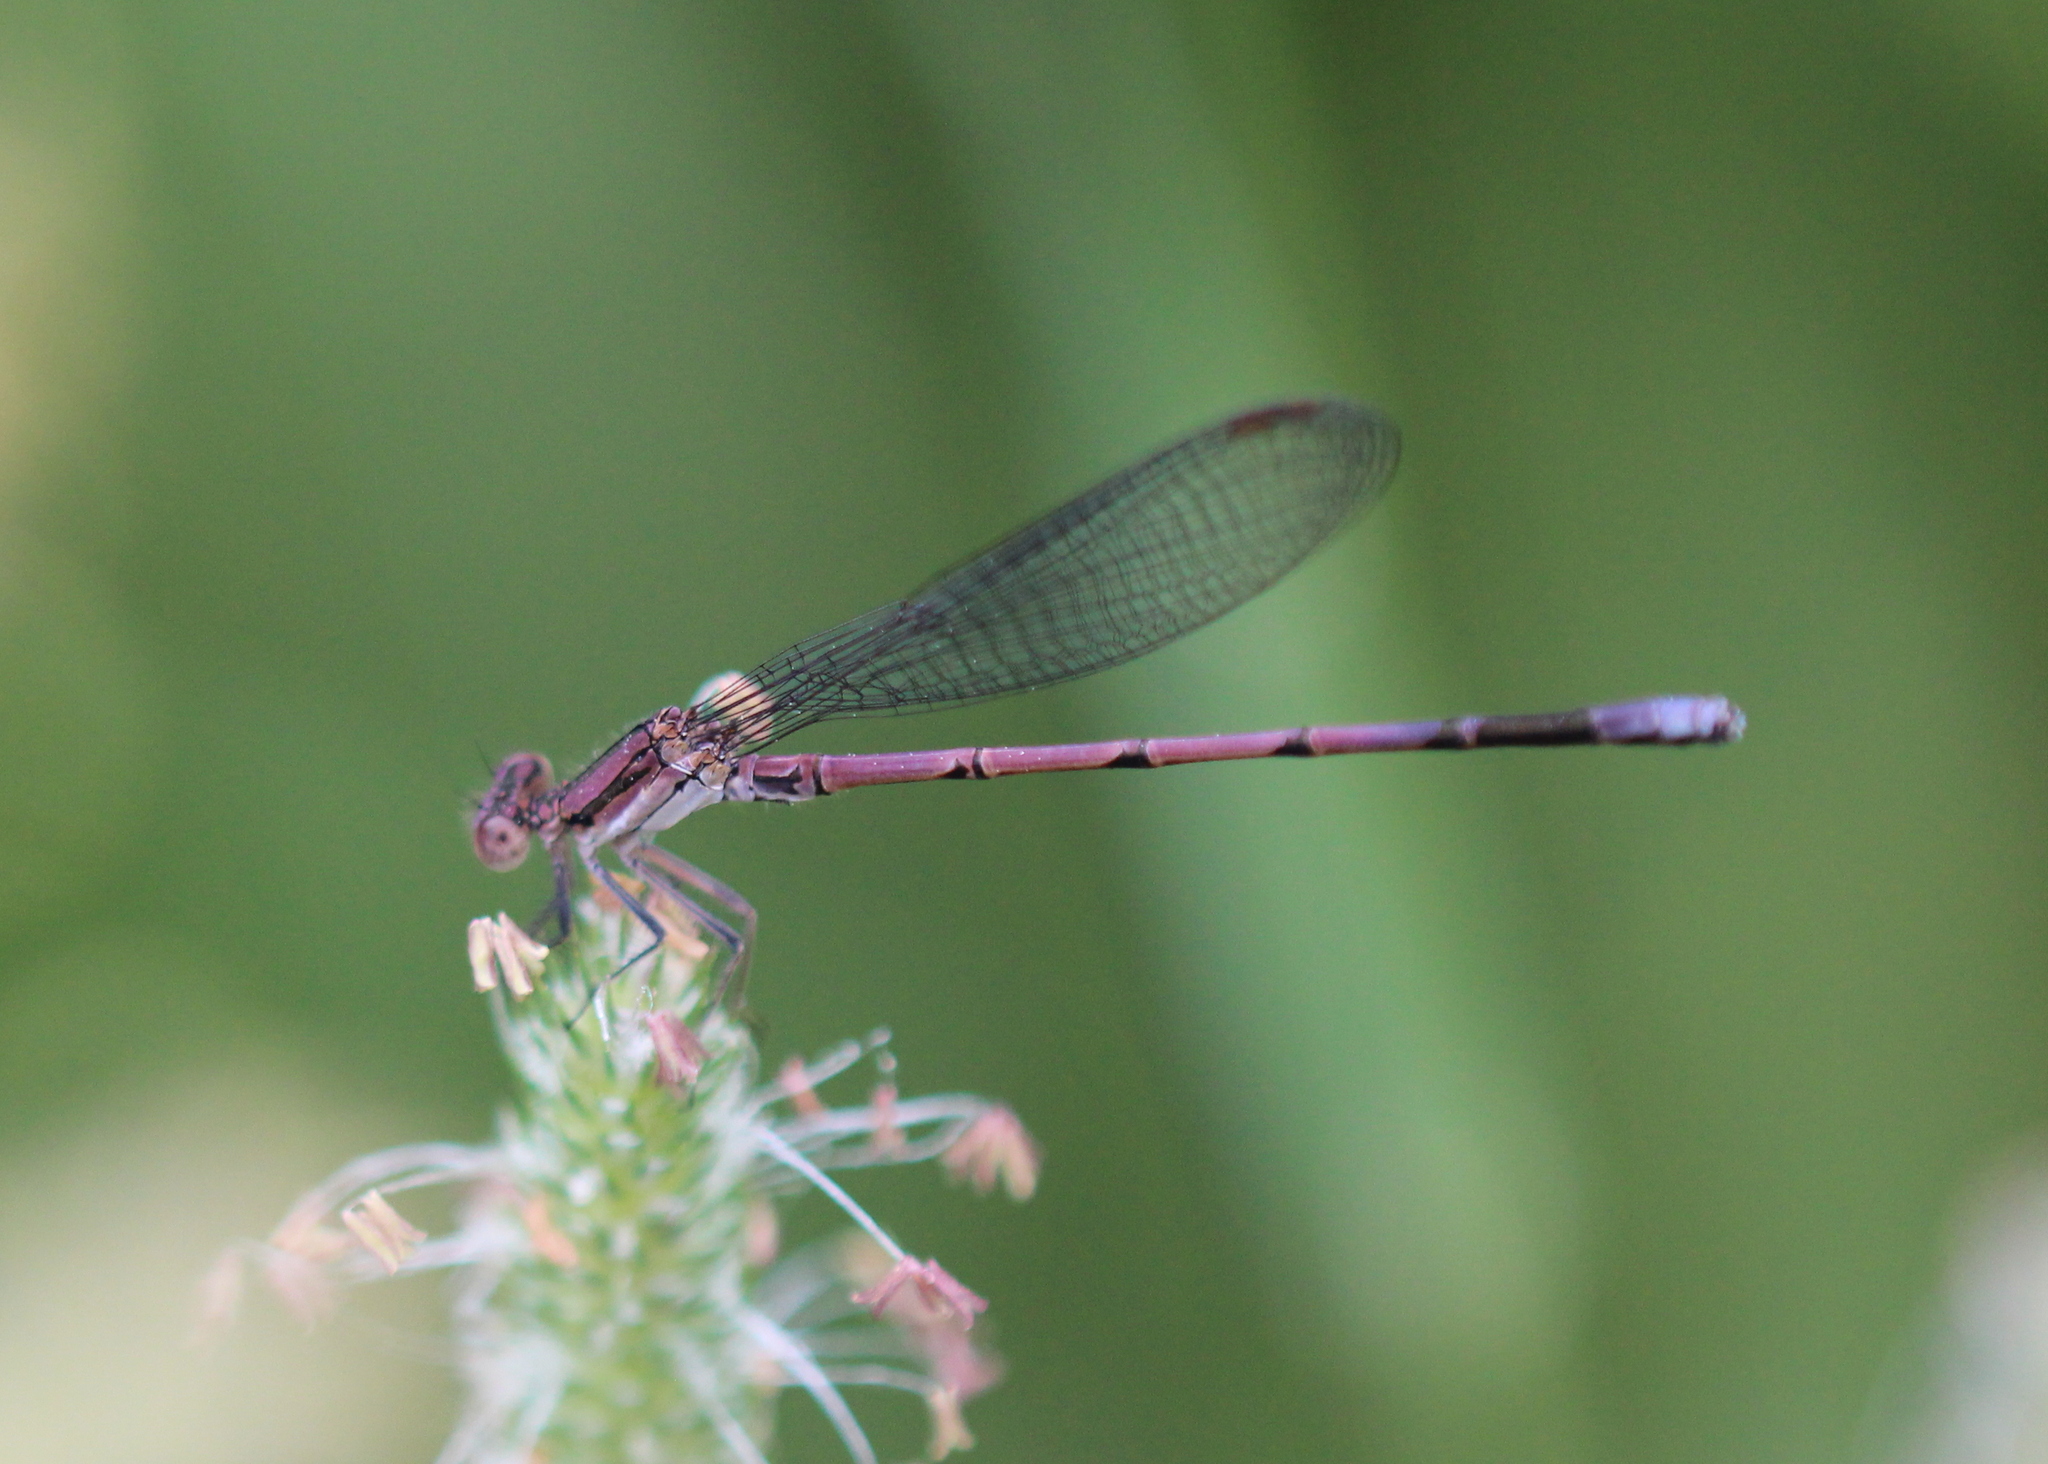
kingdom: Animalia
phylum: Arthropoda
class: Insecta
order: Odonata
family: Coenagrionidae
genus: Argia
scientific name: Argia fumipennis
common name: Variable dancer
